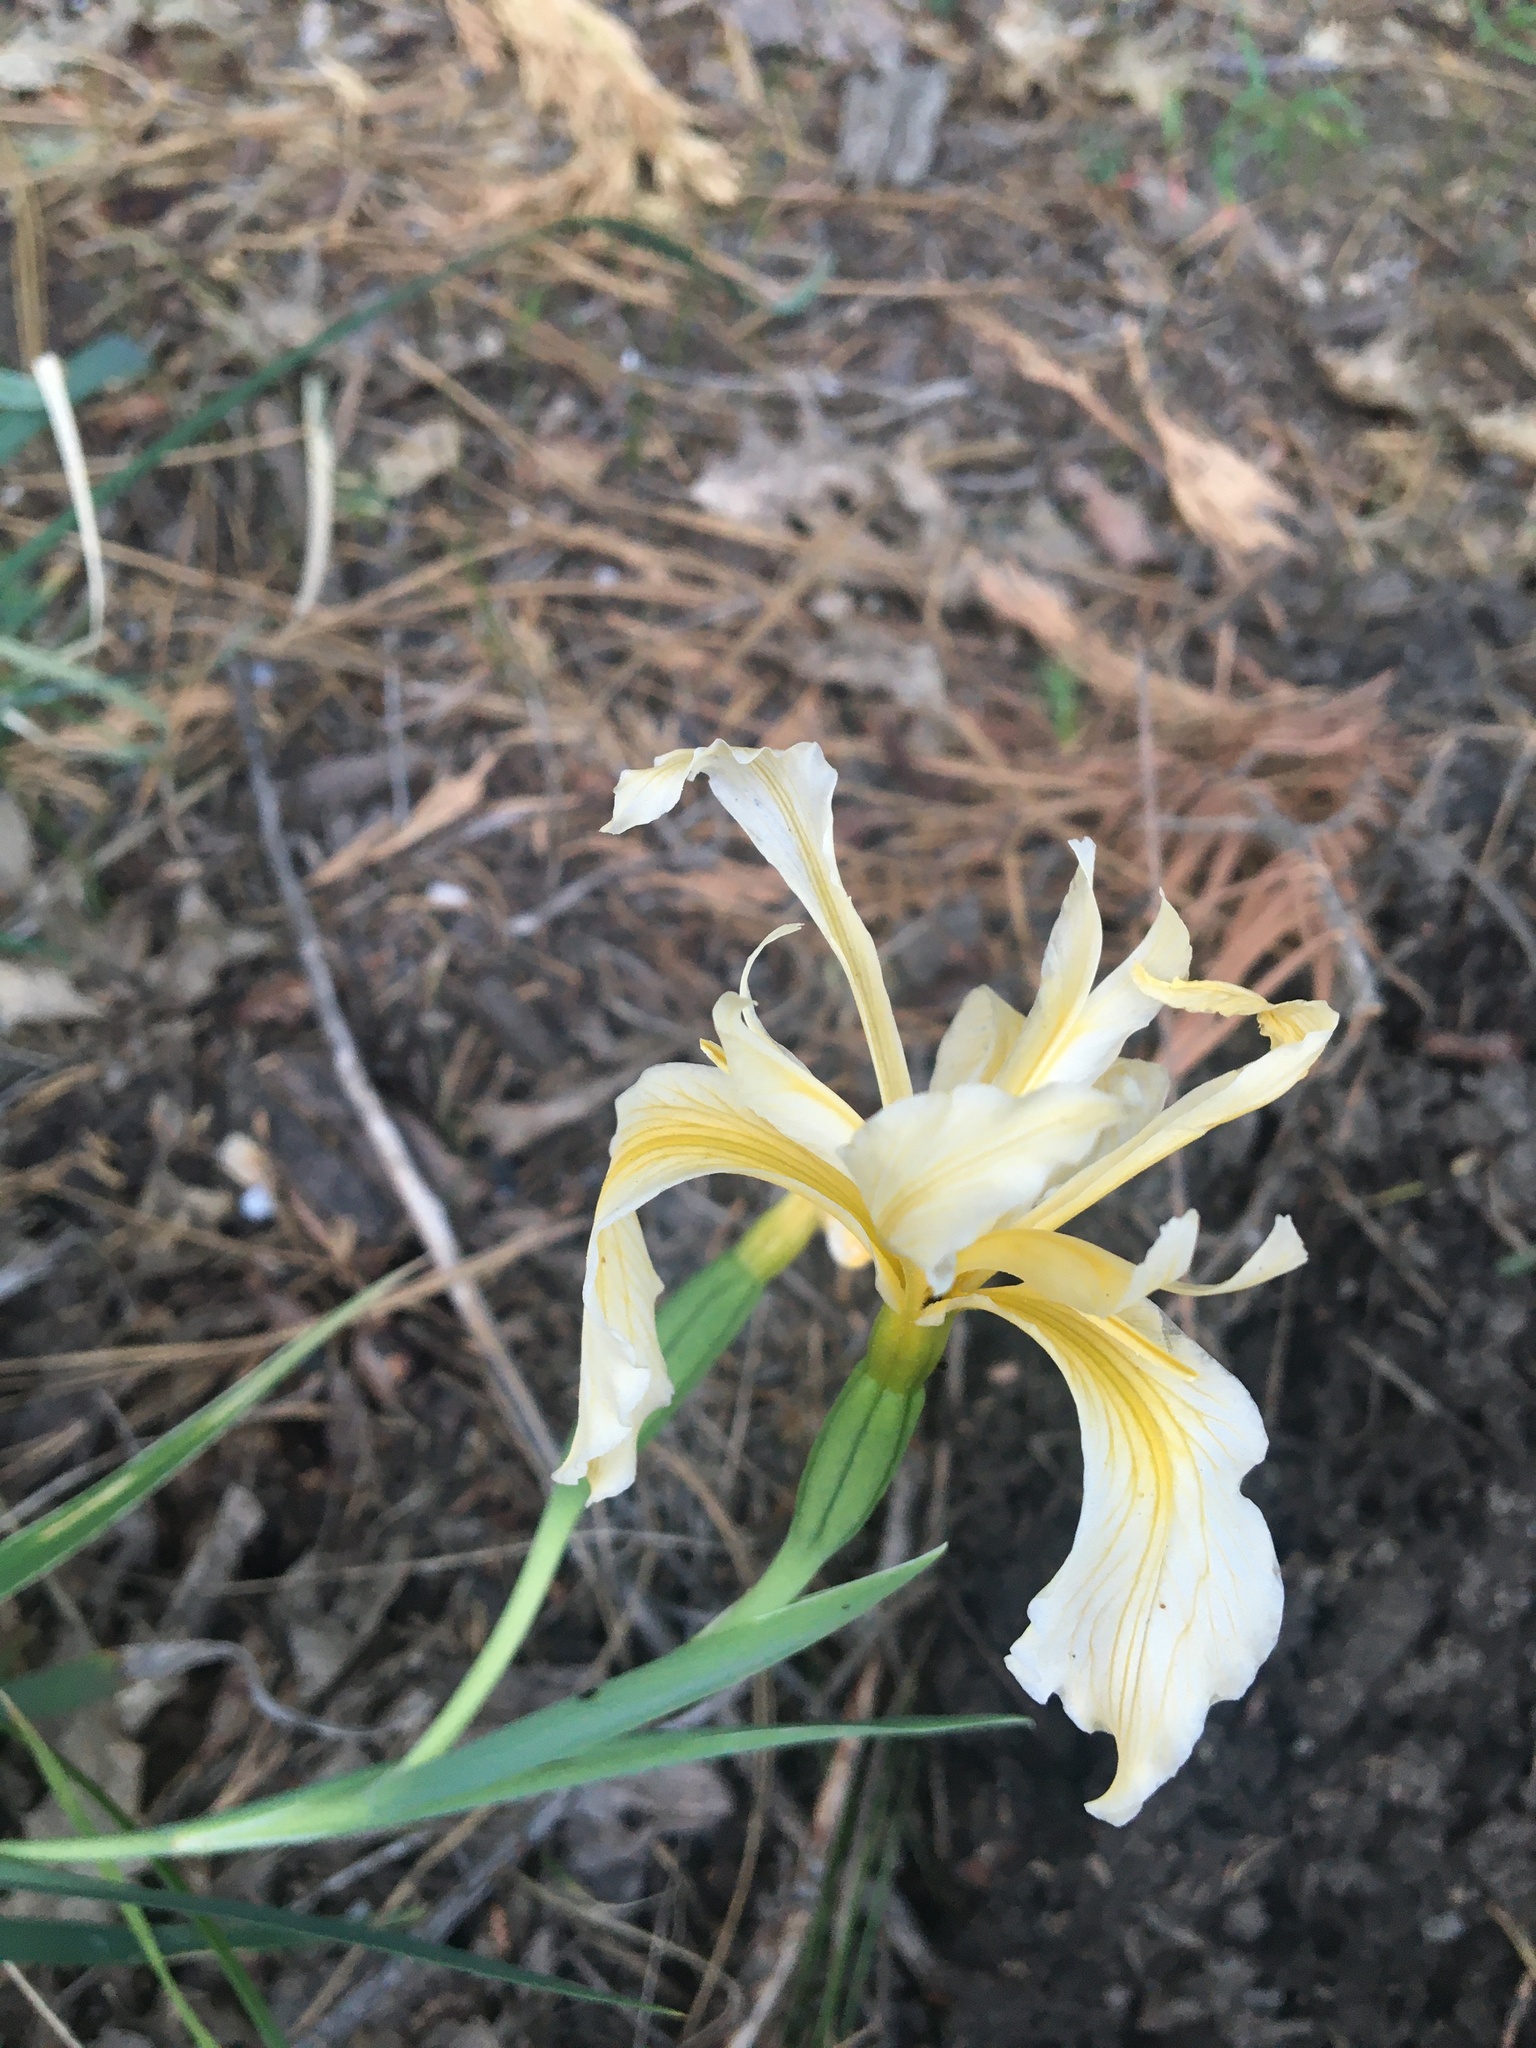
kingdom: Plantae
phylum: Tracheophyta
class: Liliopsida
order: Asparagales
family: Iridaceae
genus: Iris
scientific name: Iris hartwegii
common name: Sierra iris
